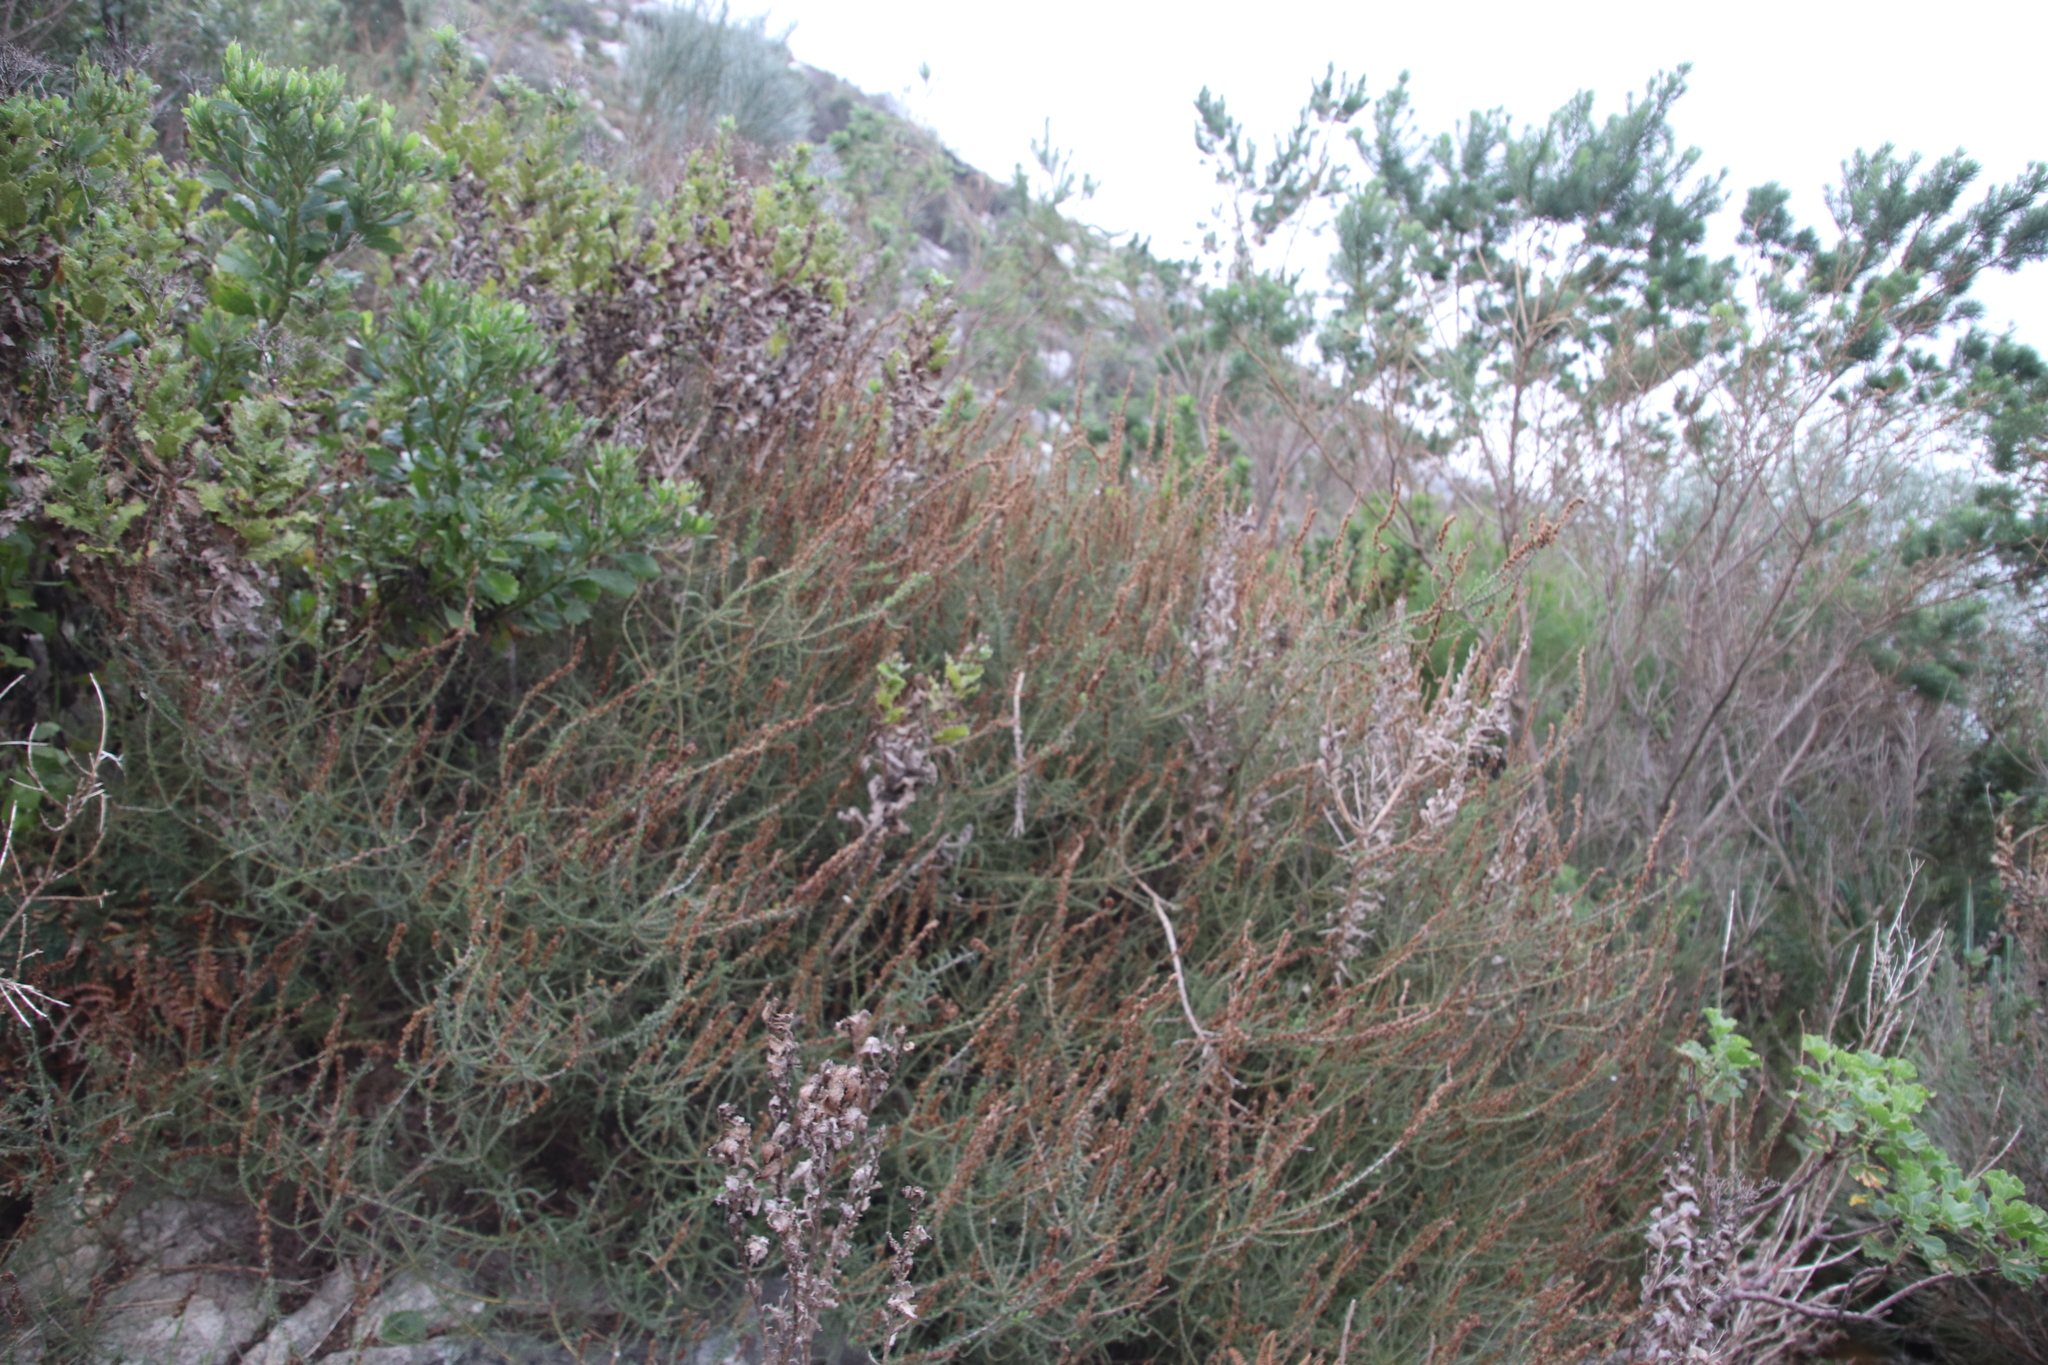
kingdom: Plantae
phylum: Tracheophyta
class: Magnoliopsida
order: Asterales
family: Asteraceae
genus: Seriphium
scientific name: Seriphium cinereum
